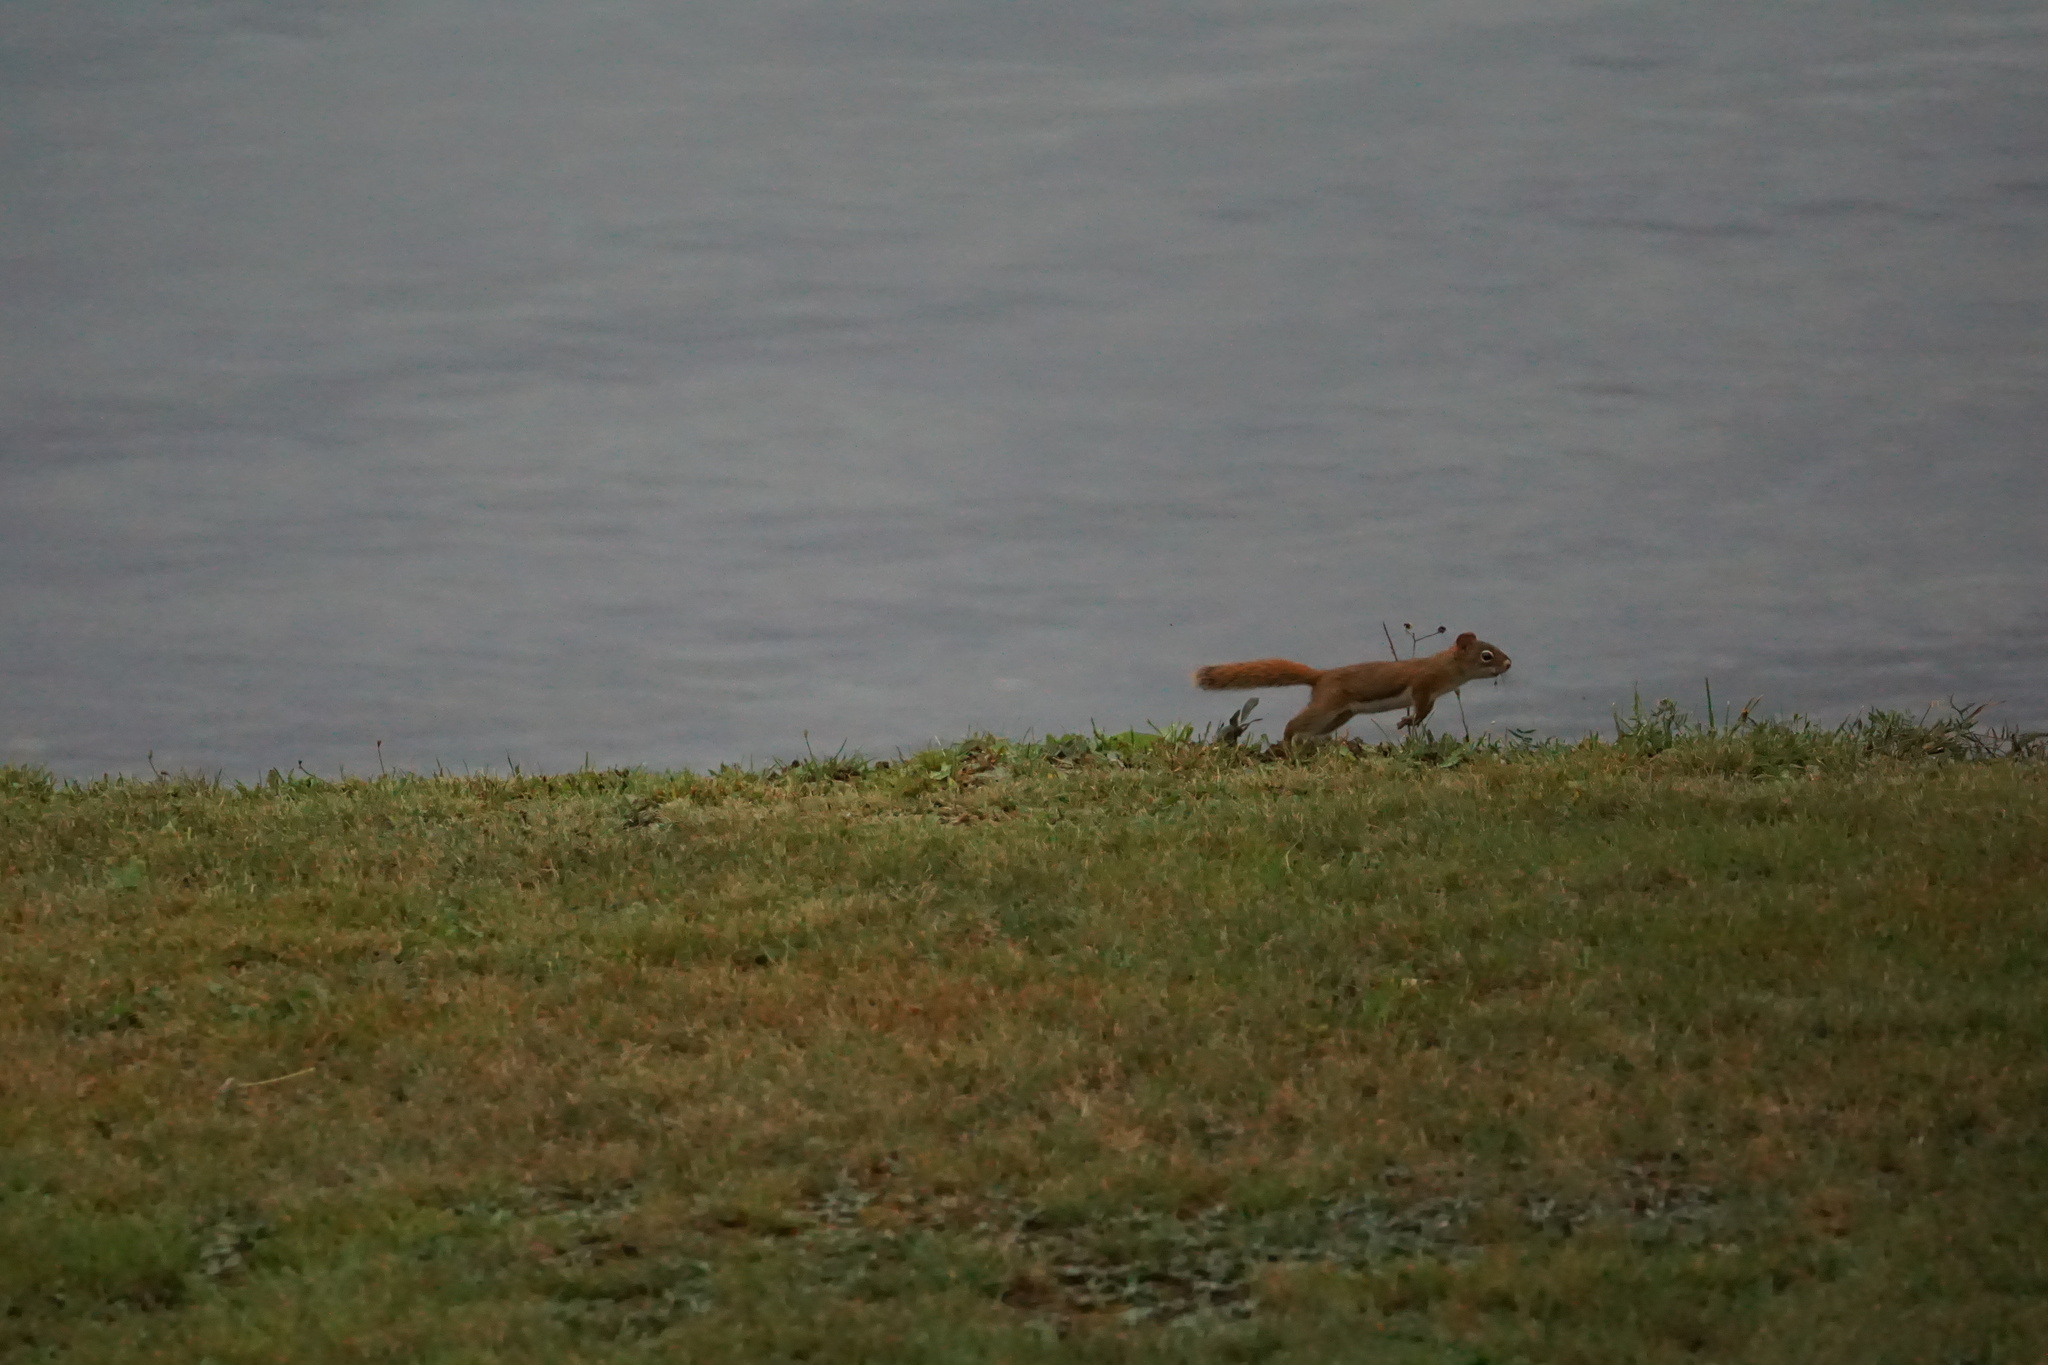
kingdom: Animalia
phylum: Chordata
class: Mammalia
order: Rodentia
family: Sciuridae
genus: Tamiasciurus
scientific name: Tamiasciurus hudsonicus
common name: Red squirrel
